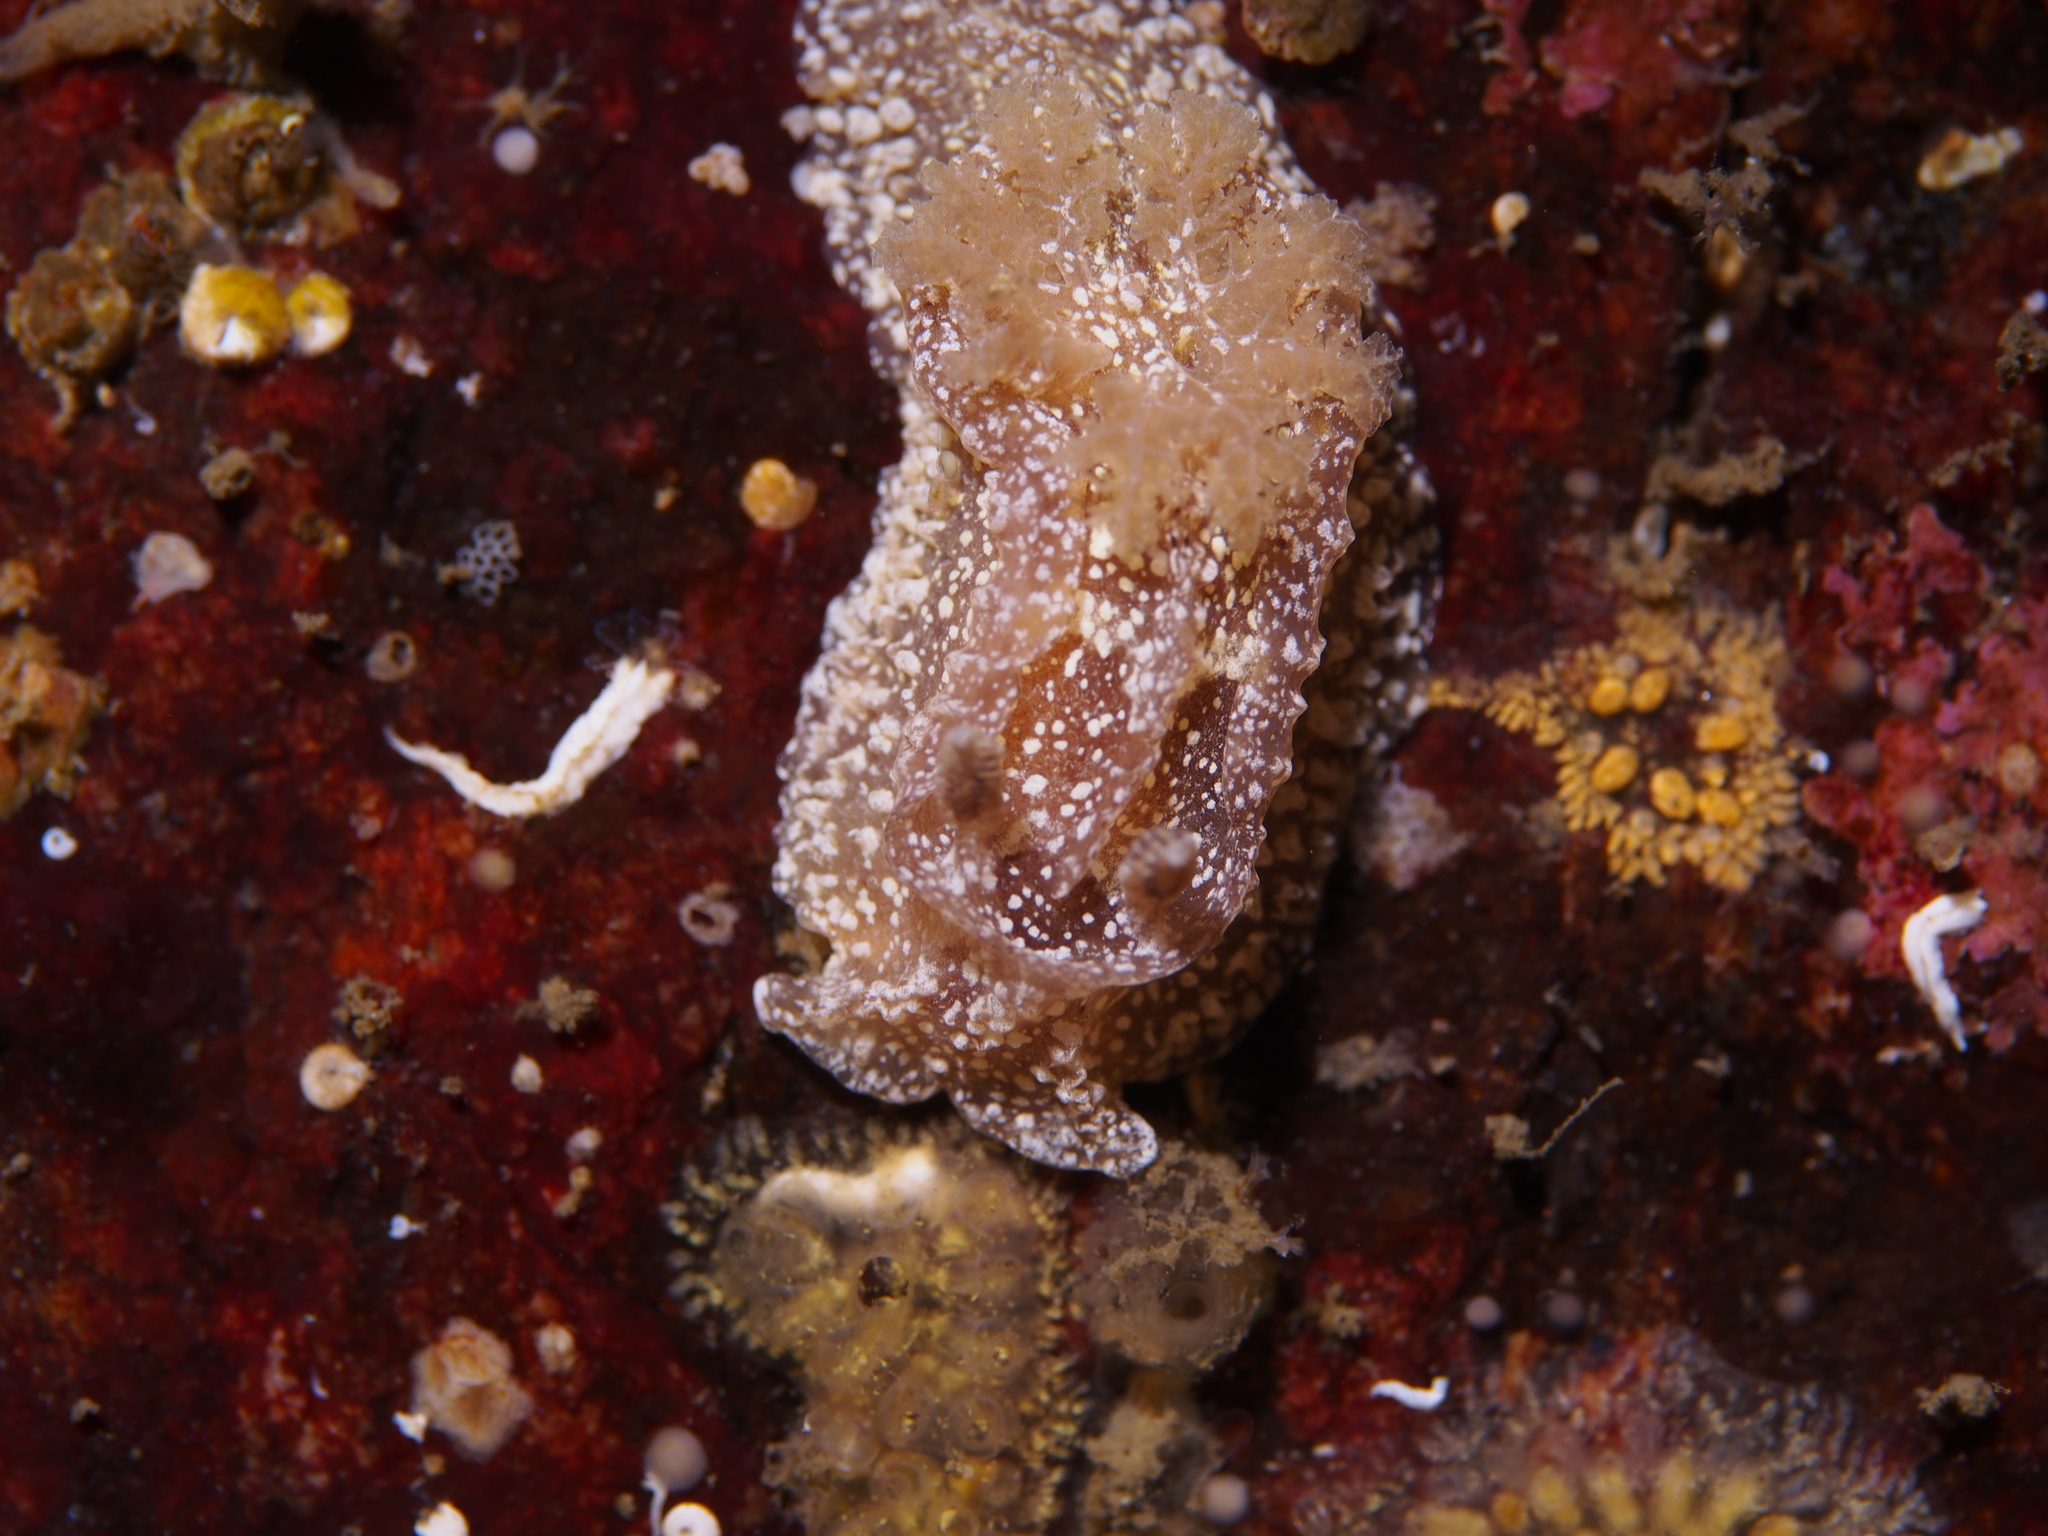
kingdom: Animalia
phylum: Mollusca
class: Gastropoda
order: Nudibranchia
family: Goniodorididae
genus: Pelagella
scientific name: Pelagella castanea
